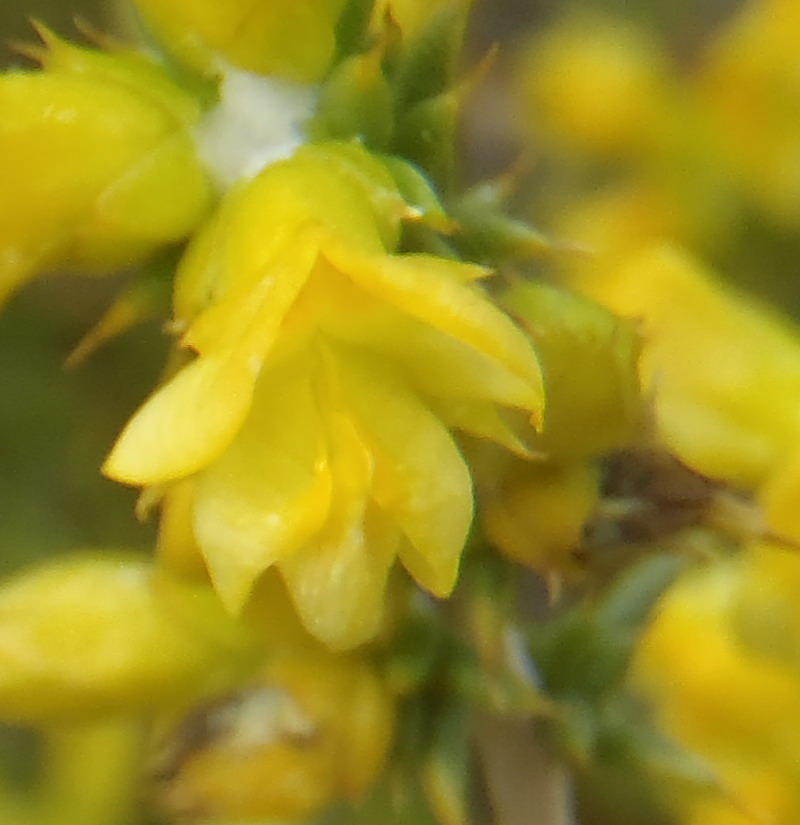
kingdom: Plantae
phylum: Tracheophyta
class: Magnoliopsida
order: Fabales
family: Fabaceae
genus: Aspalathus
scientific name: Aspalathus aciphylla
